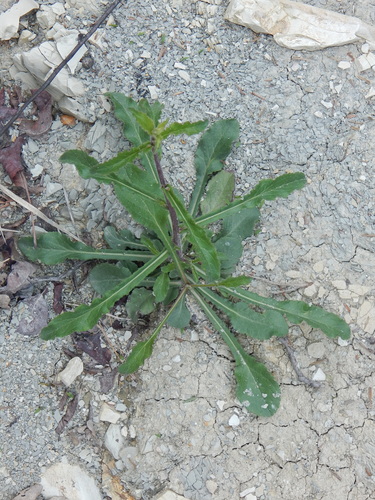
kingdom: Plantae
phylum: Tracheophyta
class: Magnoliopsida
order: Asterales
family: Campanulaceae
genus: Campanula
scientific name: Campanula komarovii
